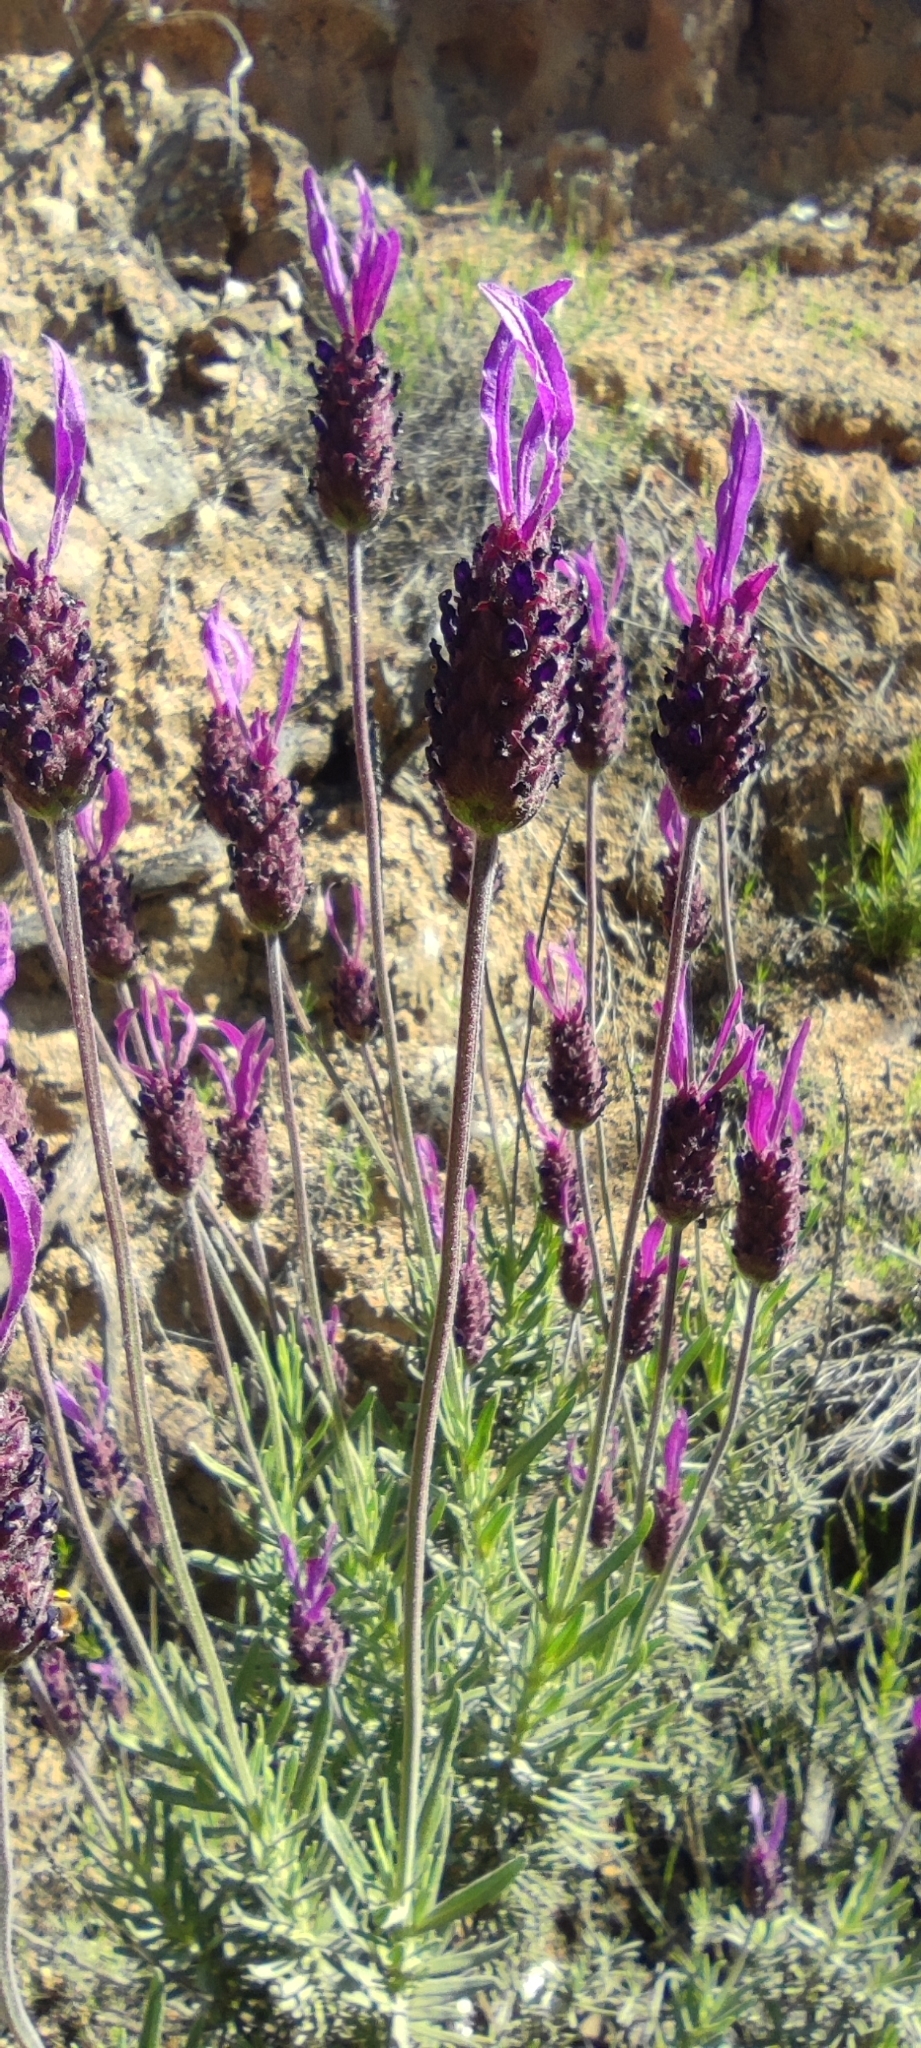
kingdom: Plantae
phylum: Tracheophyta
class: Magnoliopsida
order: Lamiales
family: Lamiaceae
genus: Lavandula
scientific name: Lavandula pedunculata
